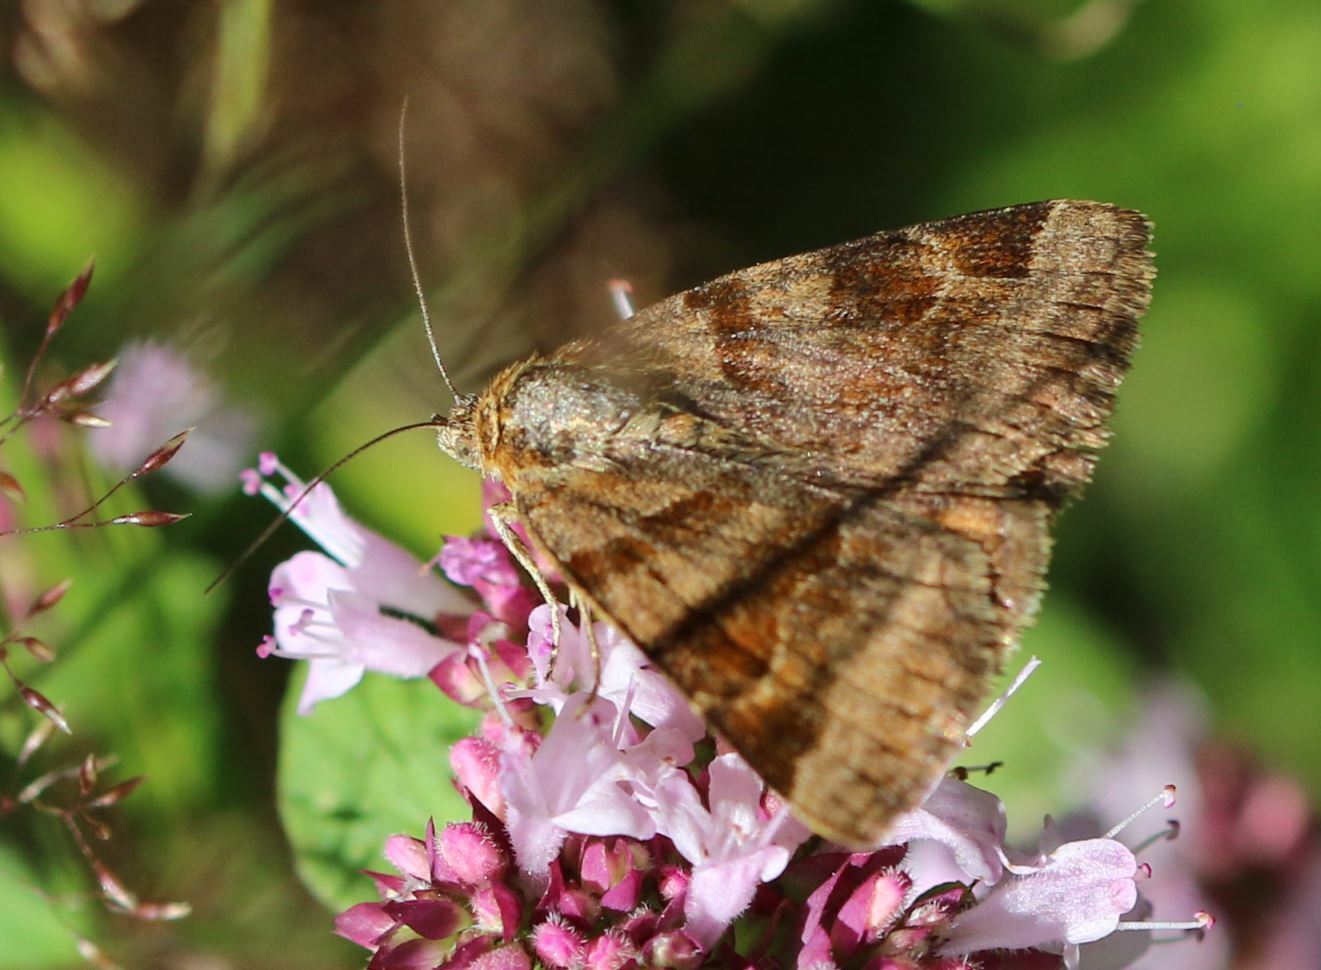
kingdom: Animalia
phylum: Arthropoda
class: Insecta
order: Lepidoptera
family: Erebidae
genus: Euclidia
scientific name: Euclidia glyphica
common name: Burnet companion
